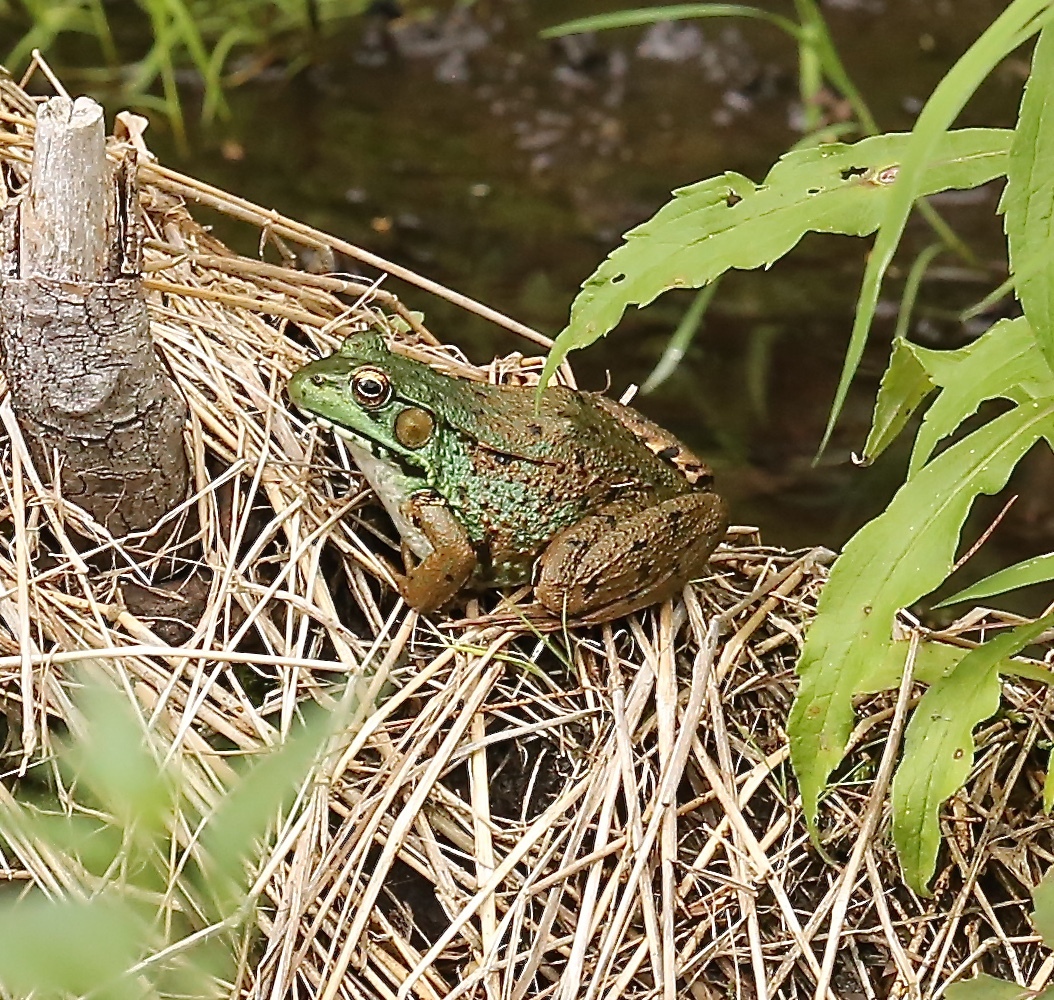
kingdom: Animalia
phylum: Chordata
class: Amphibia
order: Anura
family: Ranidae
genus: Lithobates
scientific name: Lithobates clamitans
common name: Green frog
